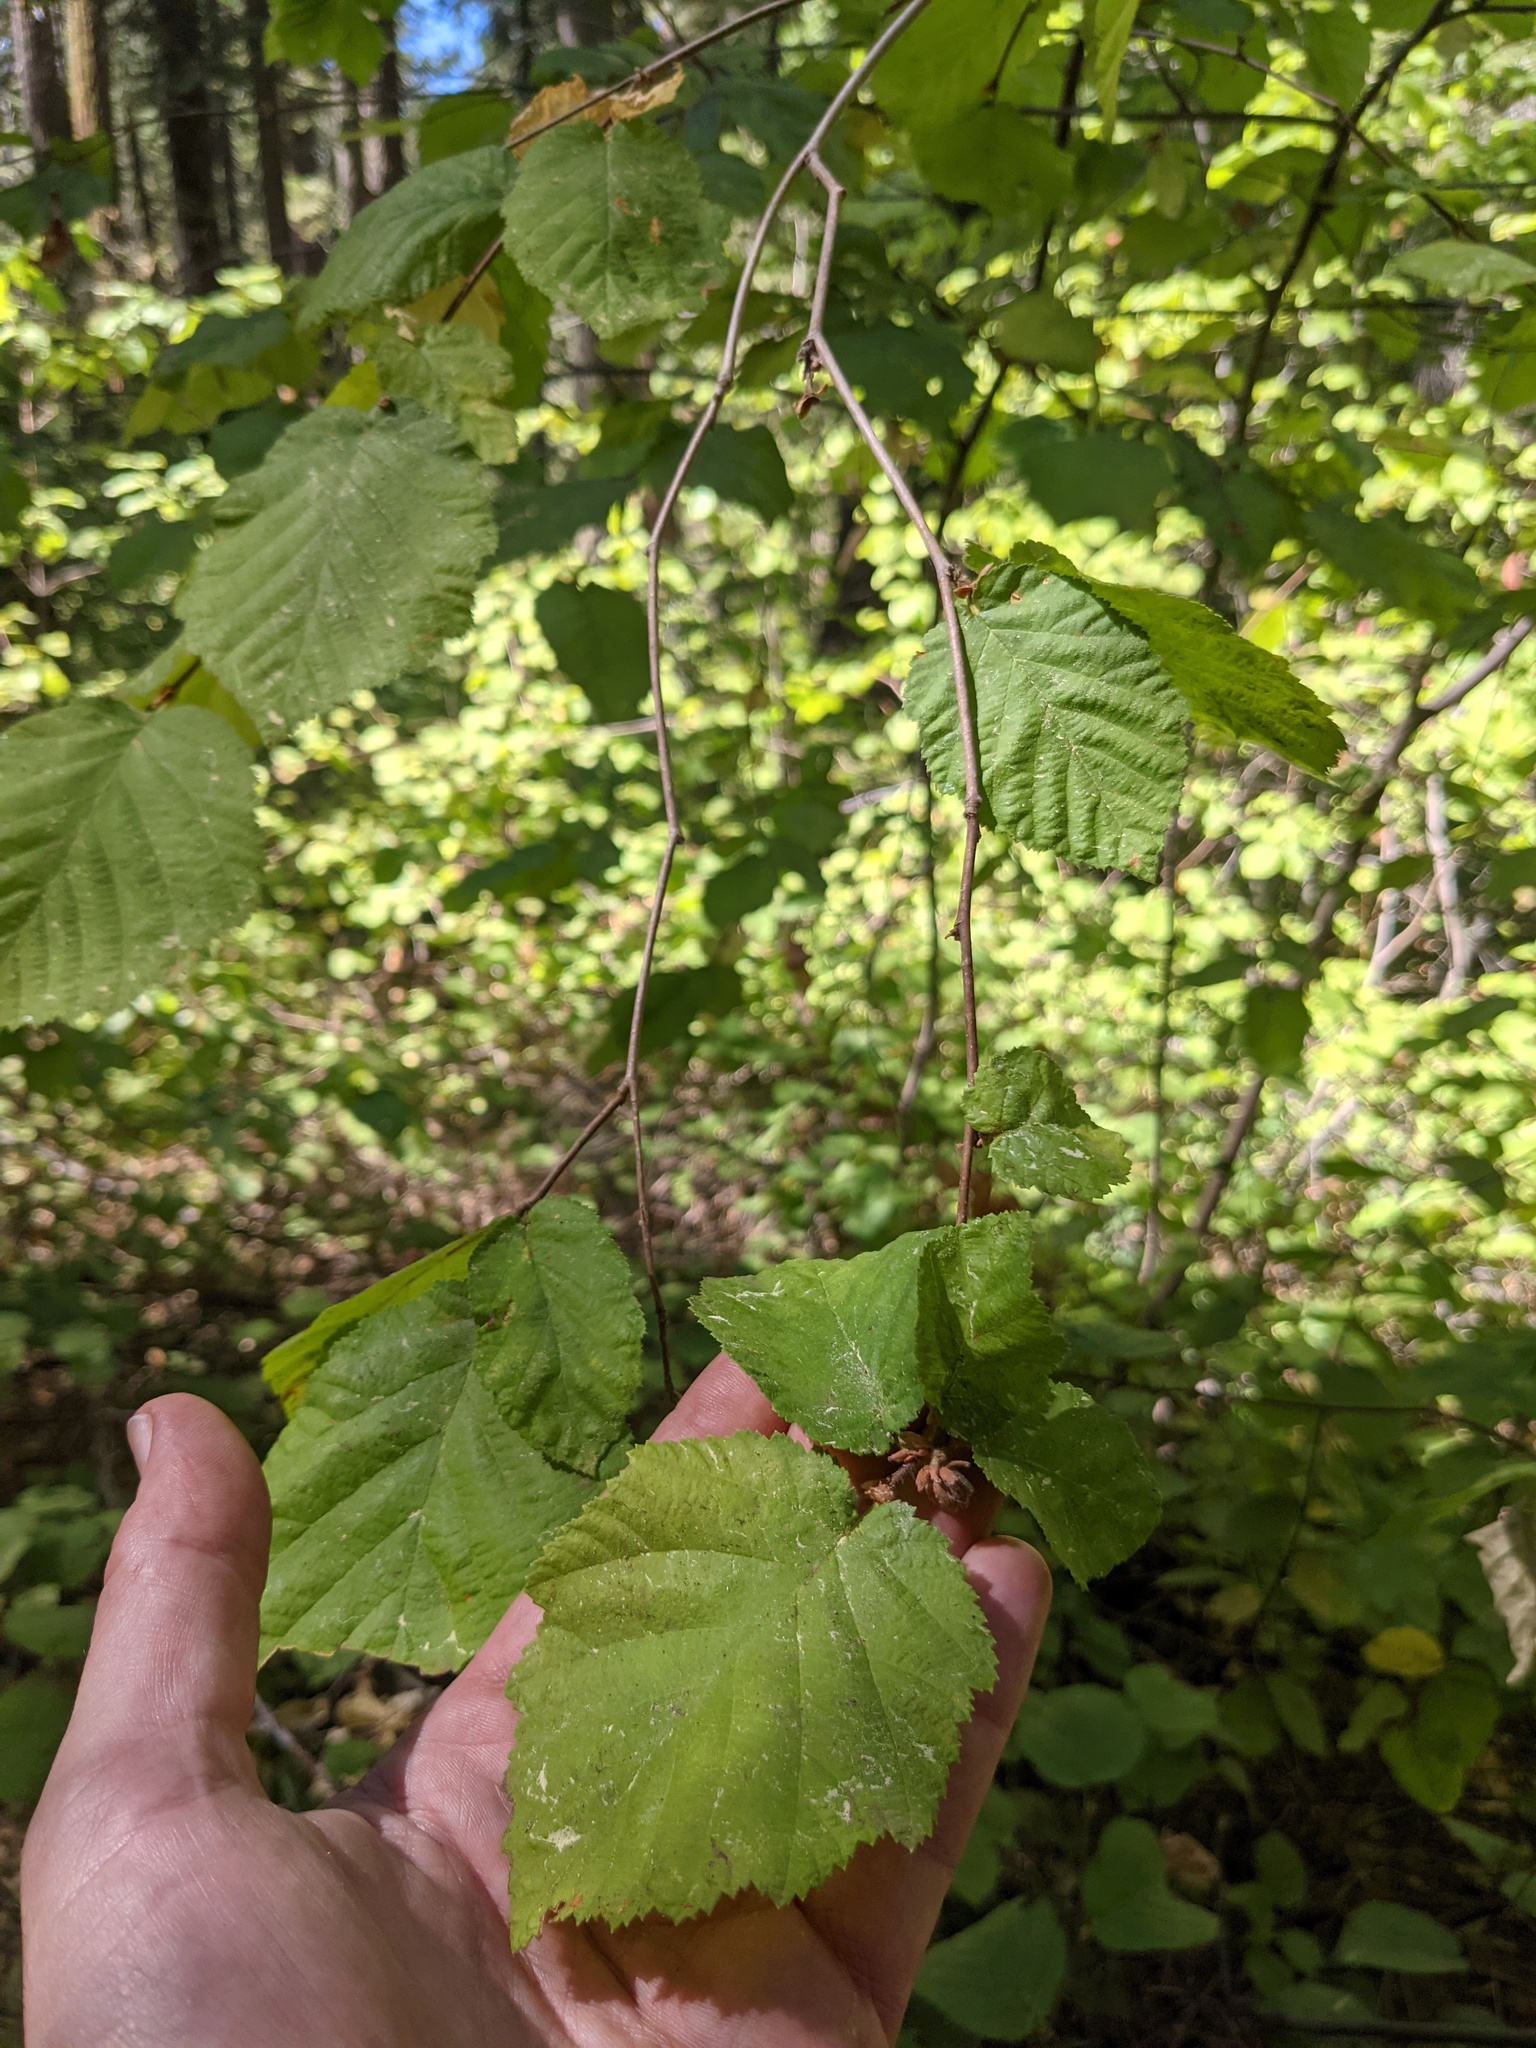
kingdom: Plantae
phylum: Tracheophyta
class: Magnoliopsida
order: Fagales
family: Betulaceae
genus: Corylus
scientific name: Corylus cornuta
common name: Beaked hazel
